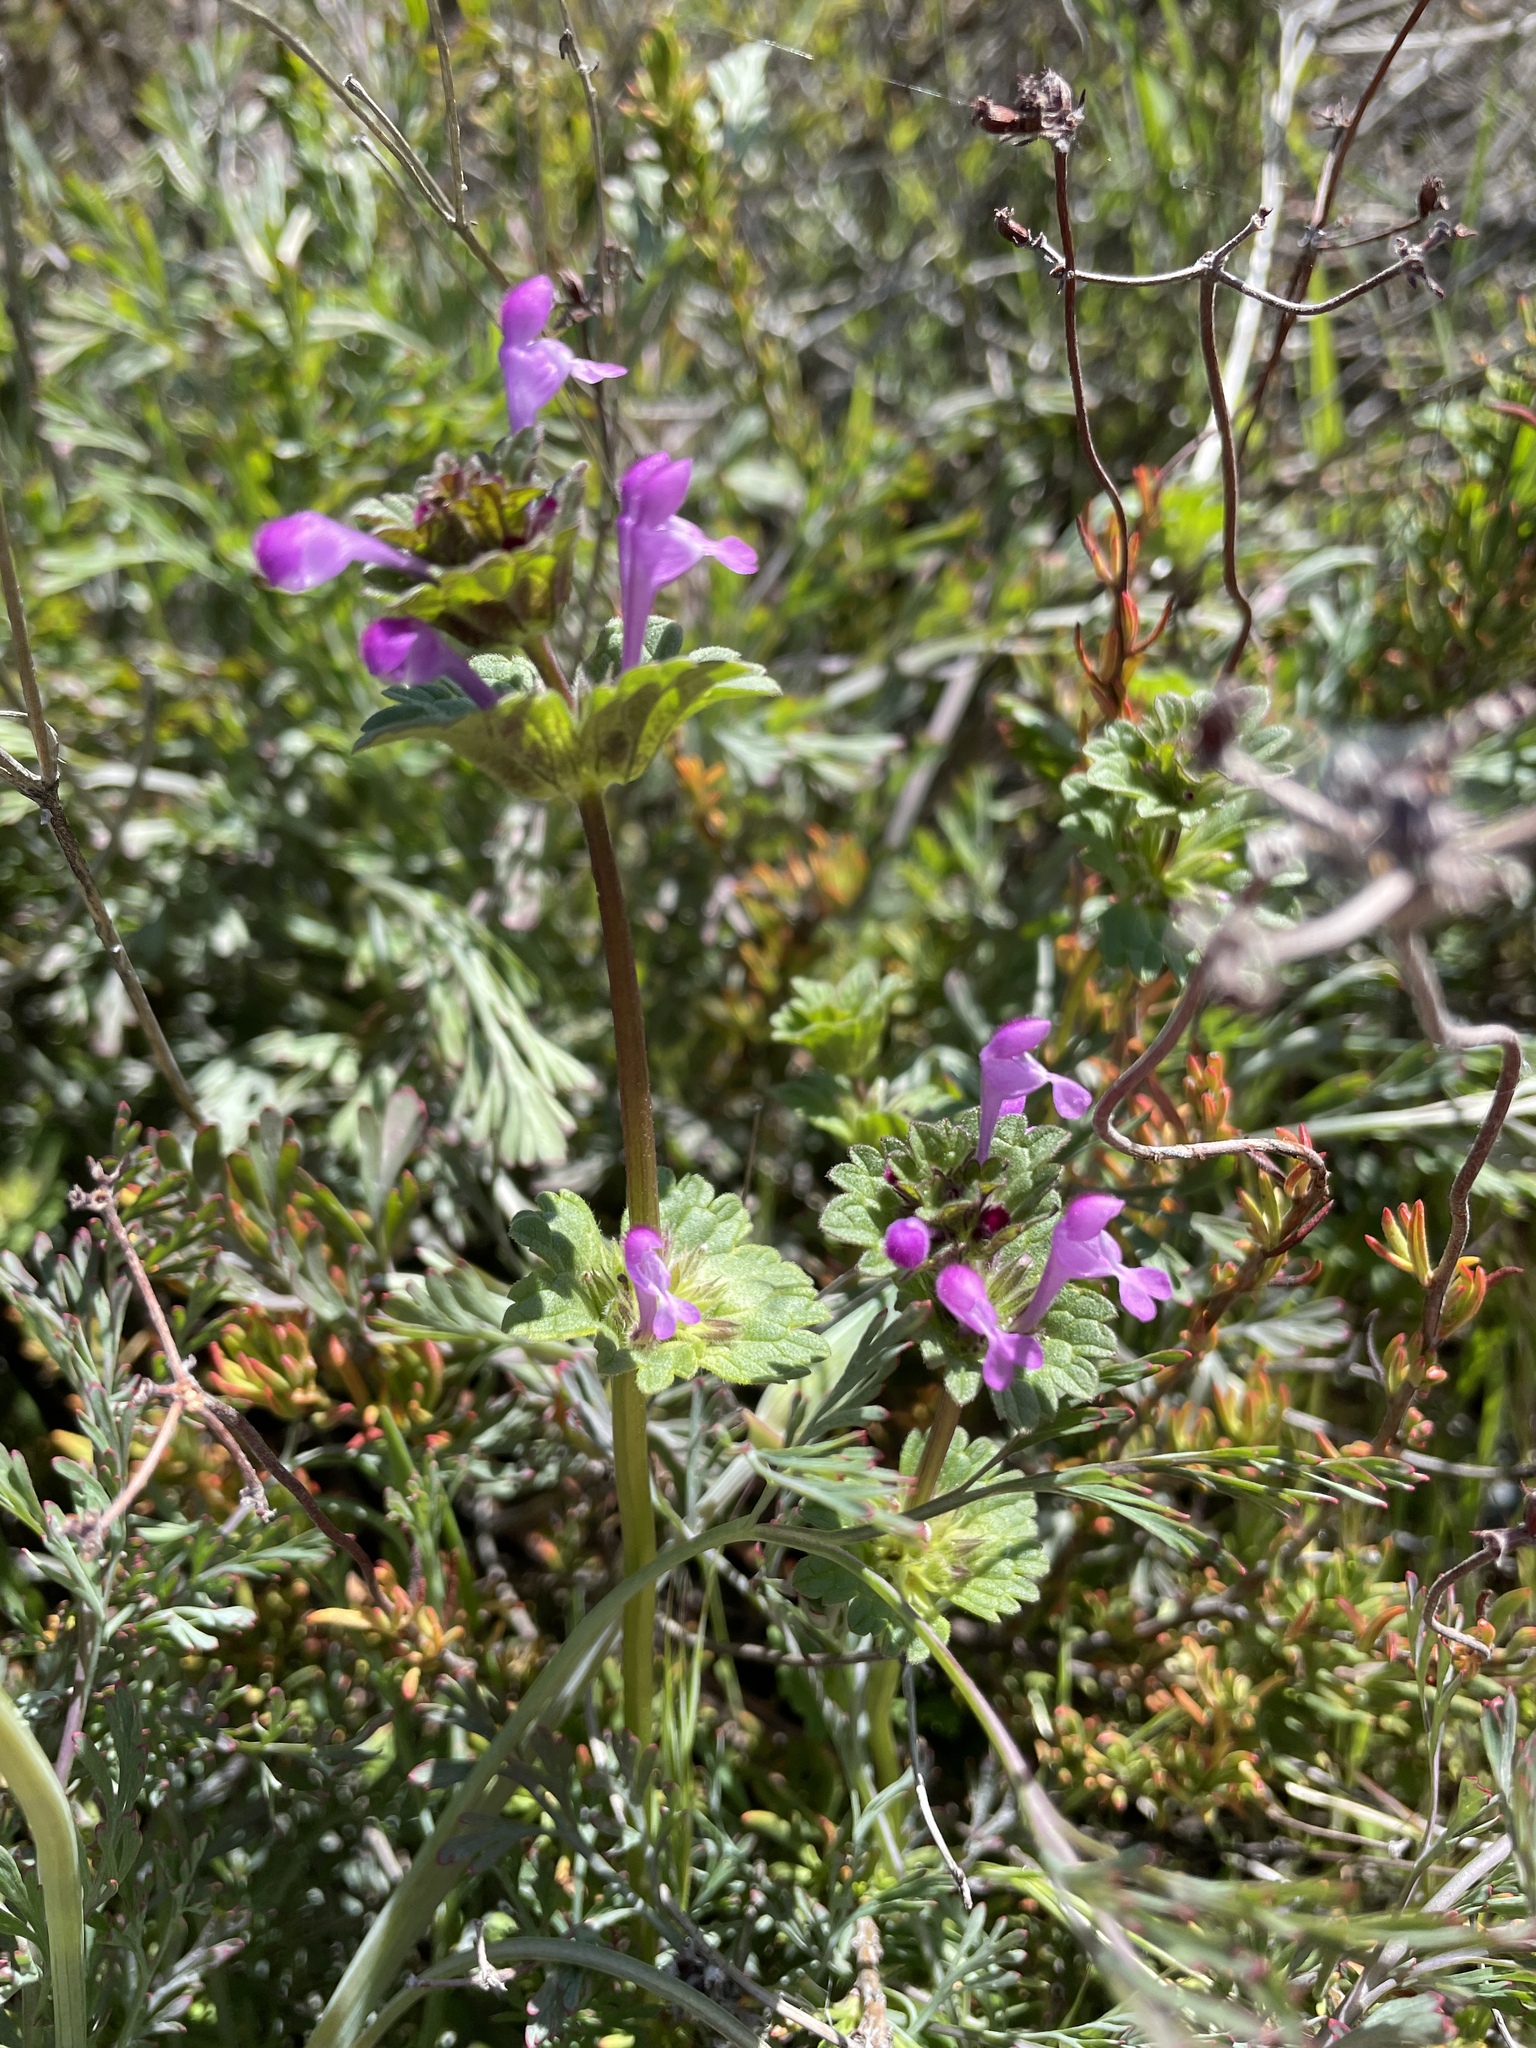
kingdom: Plantae
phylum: Tracheophyta
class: Magnoliopsida
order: Lamiales
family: Lamiaceae
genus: Lamium
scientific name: Lamium amplexicaule
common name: Henbit dead-nettle
